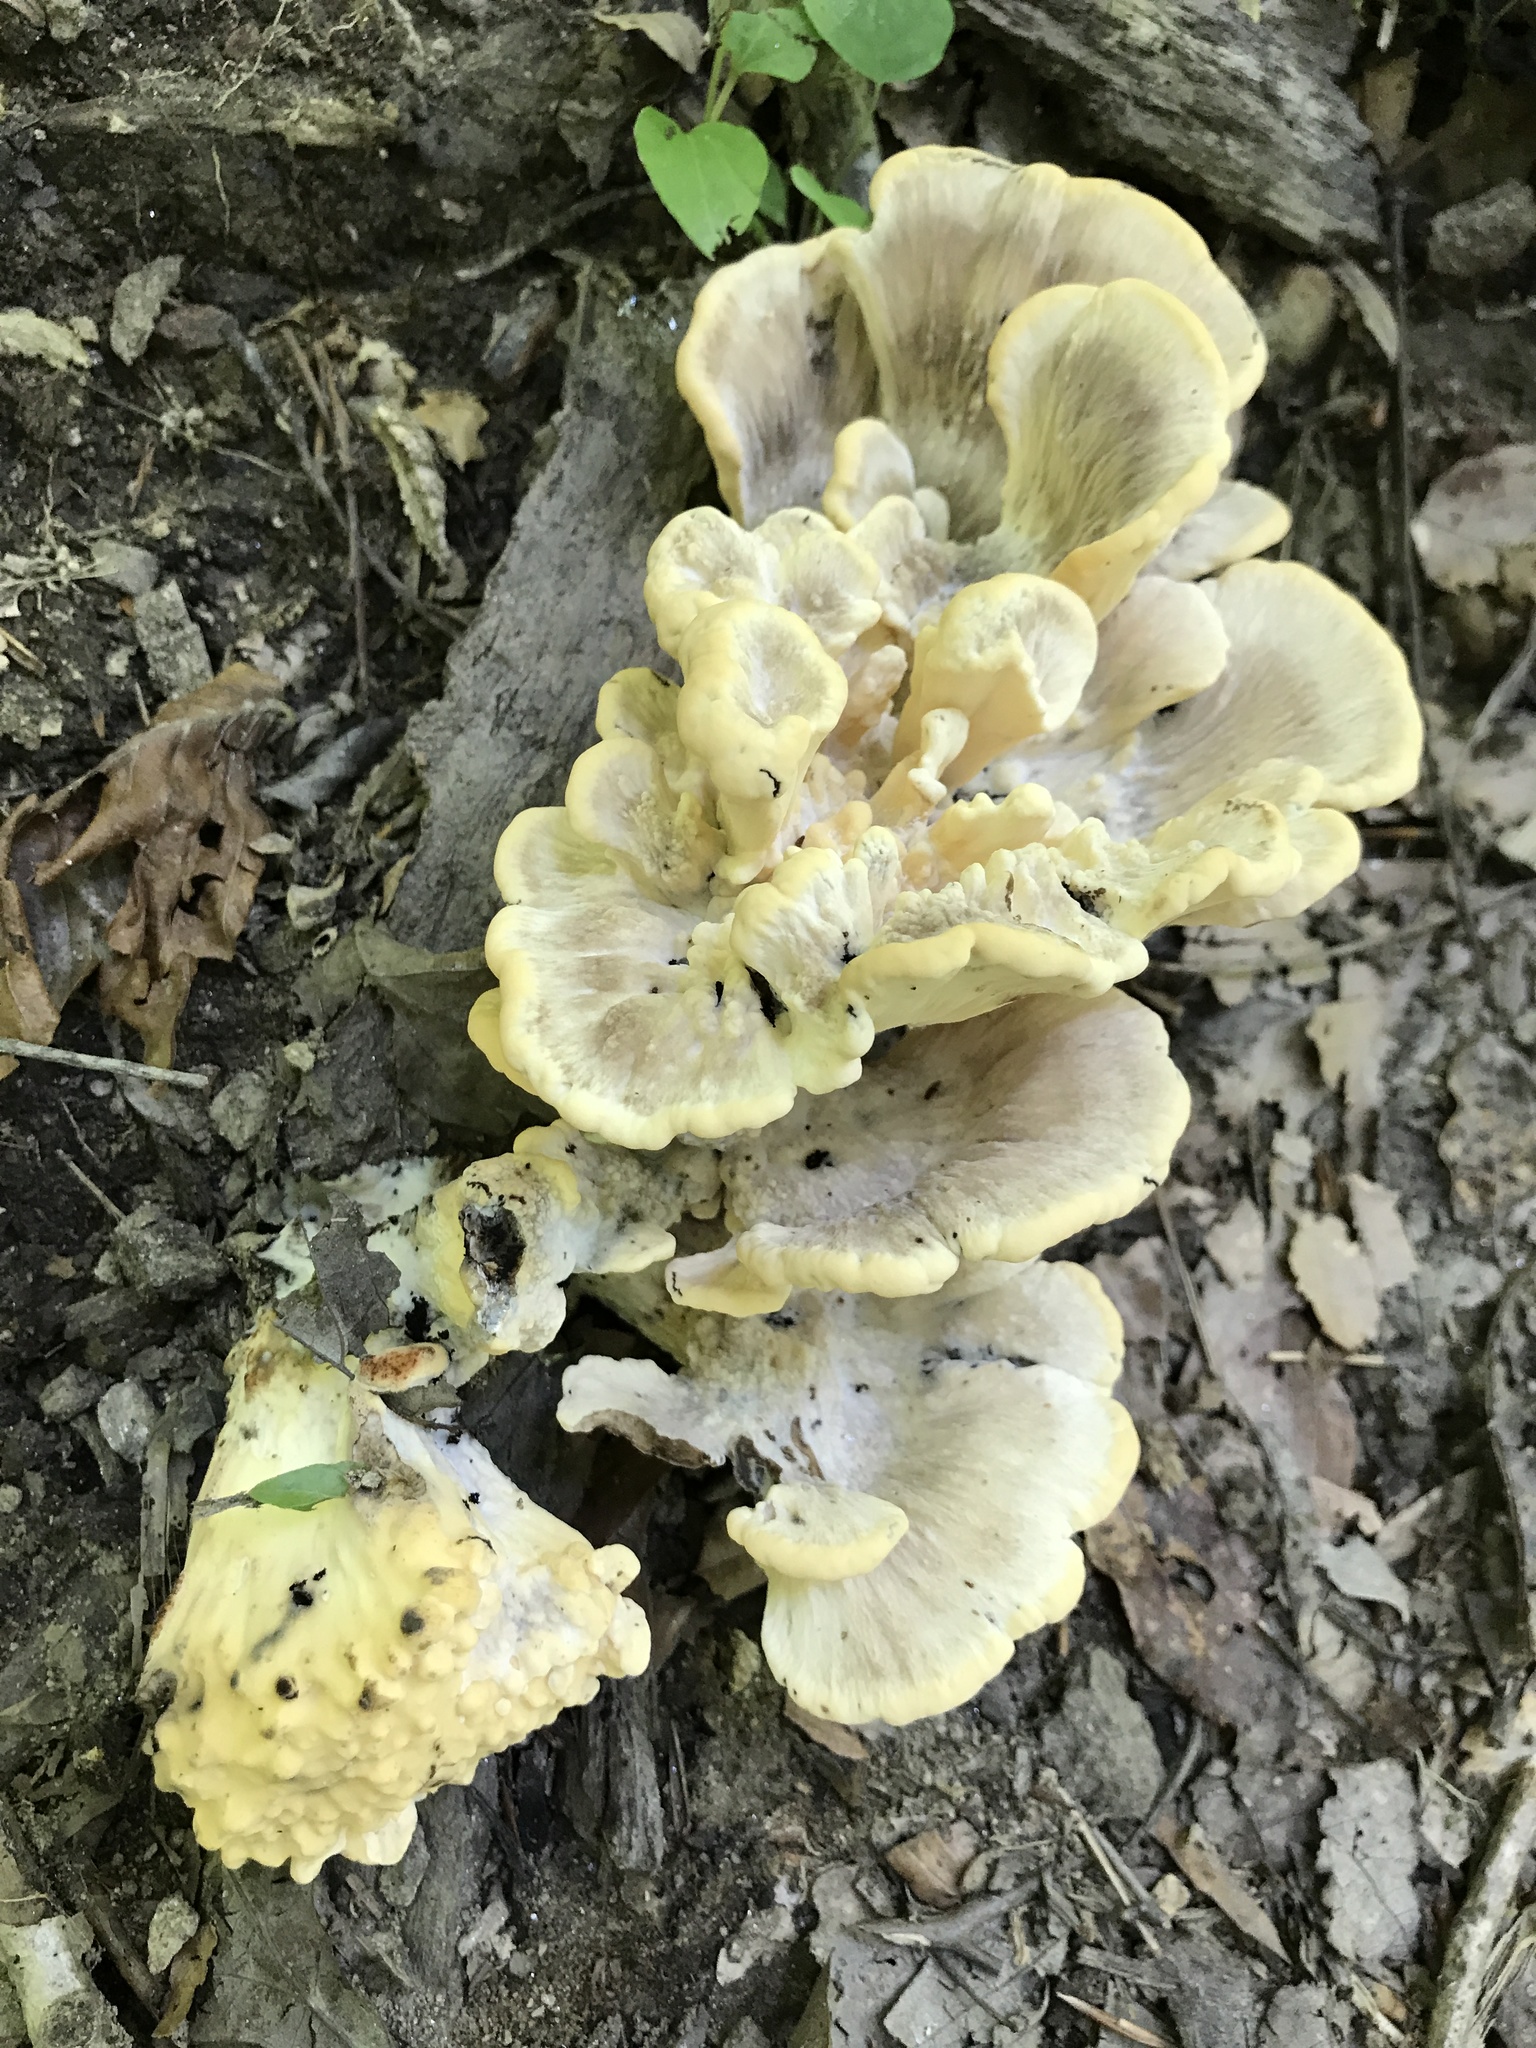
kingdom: Fungi
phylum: Basidiomycota
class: Agaricomycetes
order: Polyporales
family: Meripilaceae
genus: Meripilus
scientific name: Meripilus sumstinei
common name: Black-staining polypore
